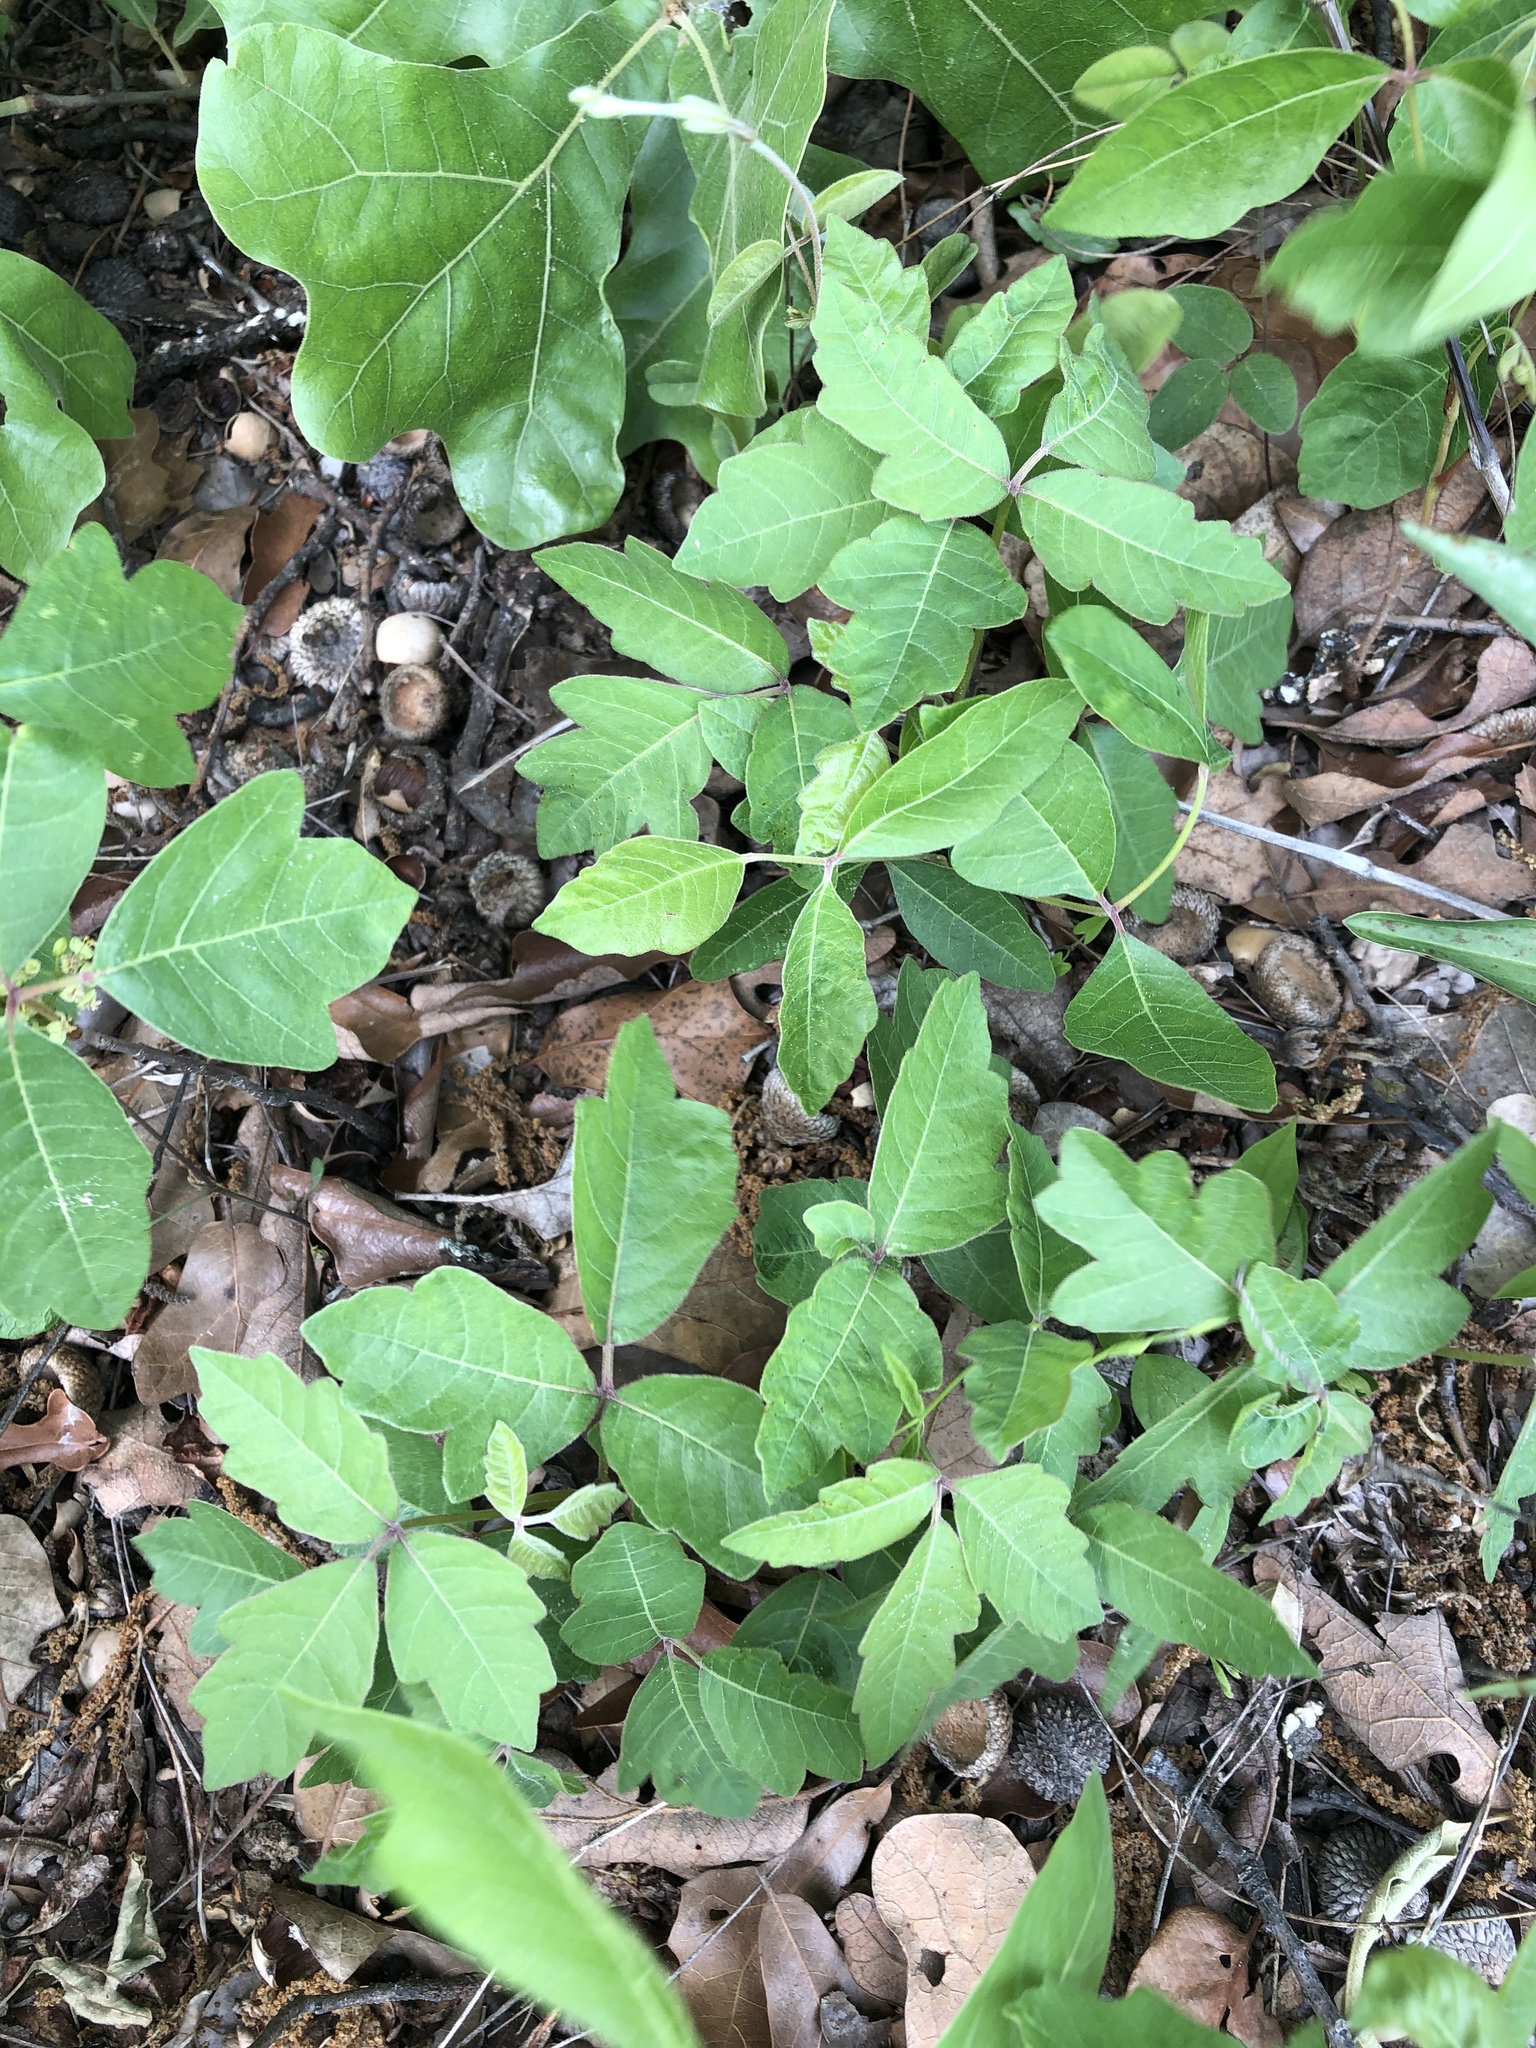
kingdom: Plantae
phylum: Tracheophyta
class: Magnoliopsida
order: Sapindales
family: Anacardiaceae
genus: Toxicodendron
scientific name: Toxicodendron radicans
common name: Poison ivy
